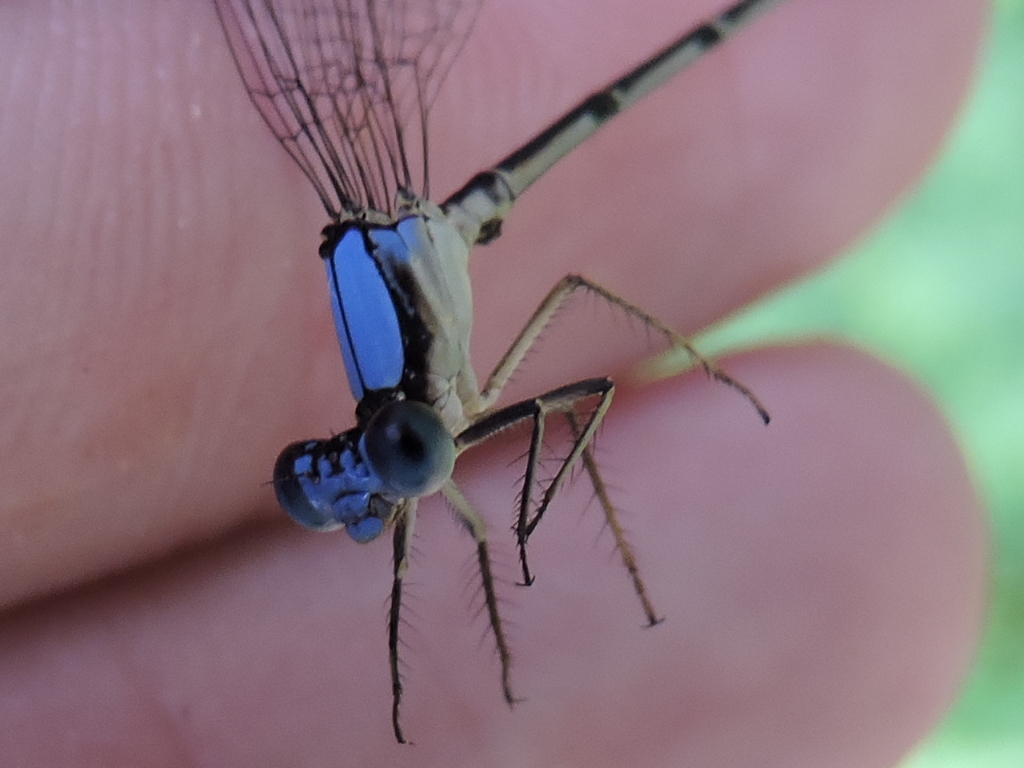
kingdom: Animalia
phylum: Arthropoda
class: Insecta
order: Odonata
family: Coenagrionidae
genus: Argia
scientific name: Argia apicalis
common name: Blue-fronted dancer
